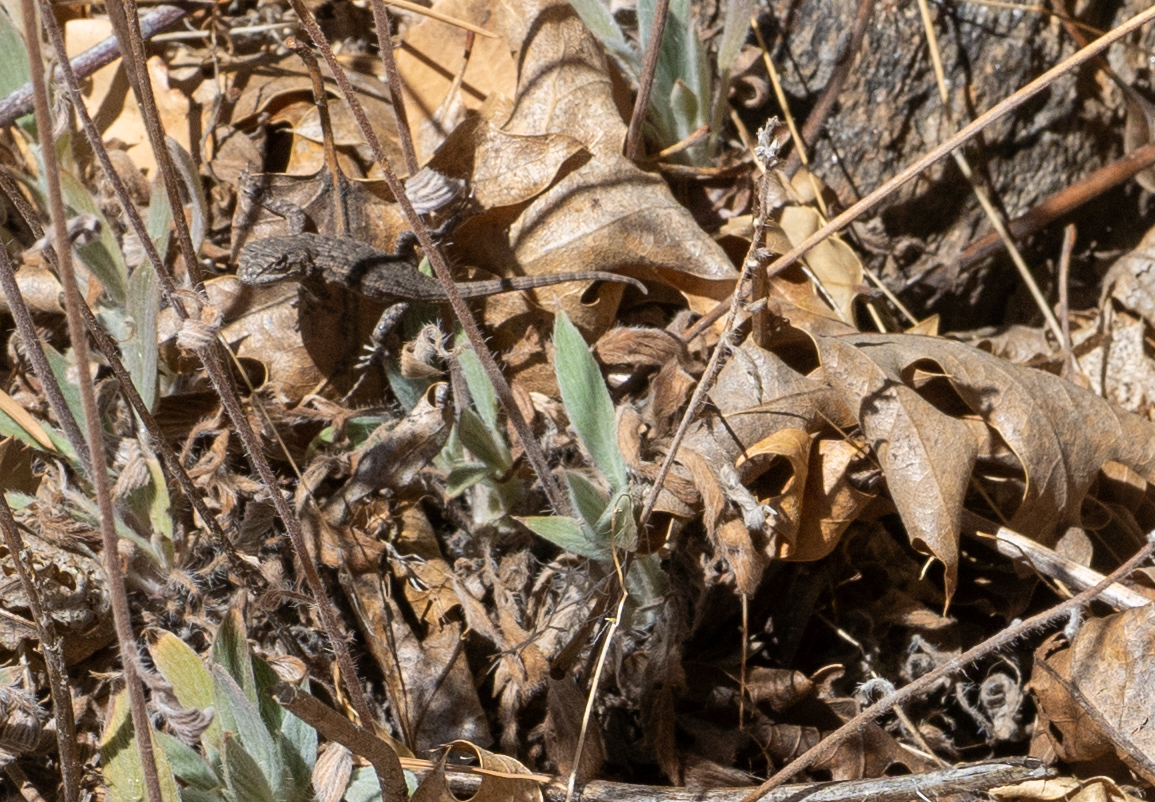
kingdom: Animalia
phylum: Chordata
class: Squamata
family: Phrynosomatidae
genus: Sceloporus
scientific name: Sceloporus occidentalis
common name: Western fence lizard
